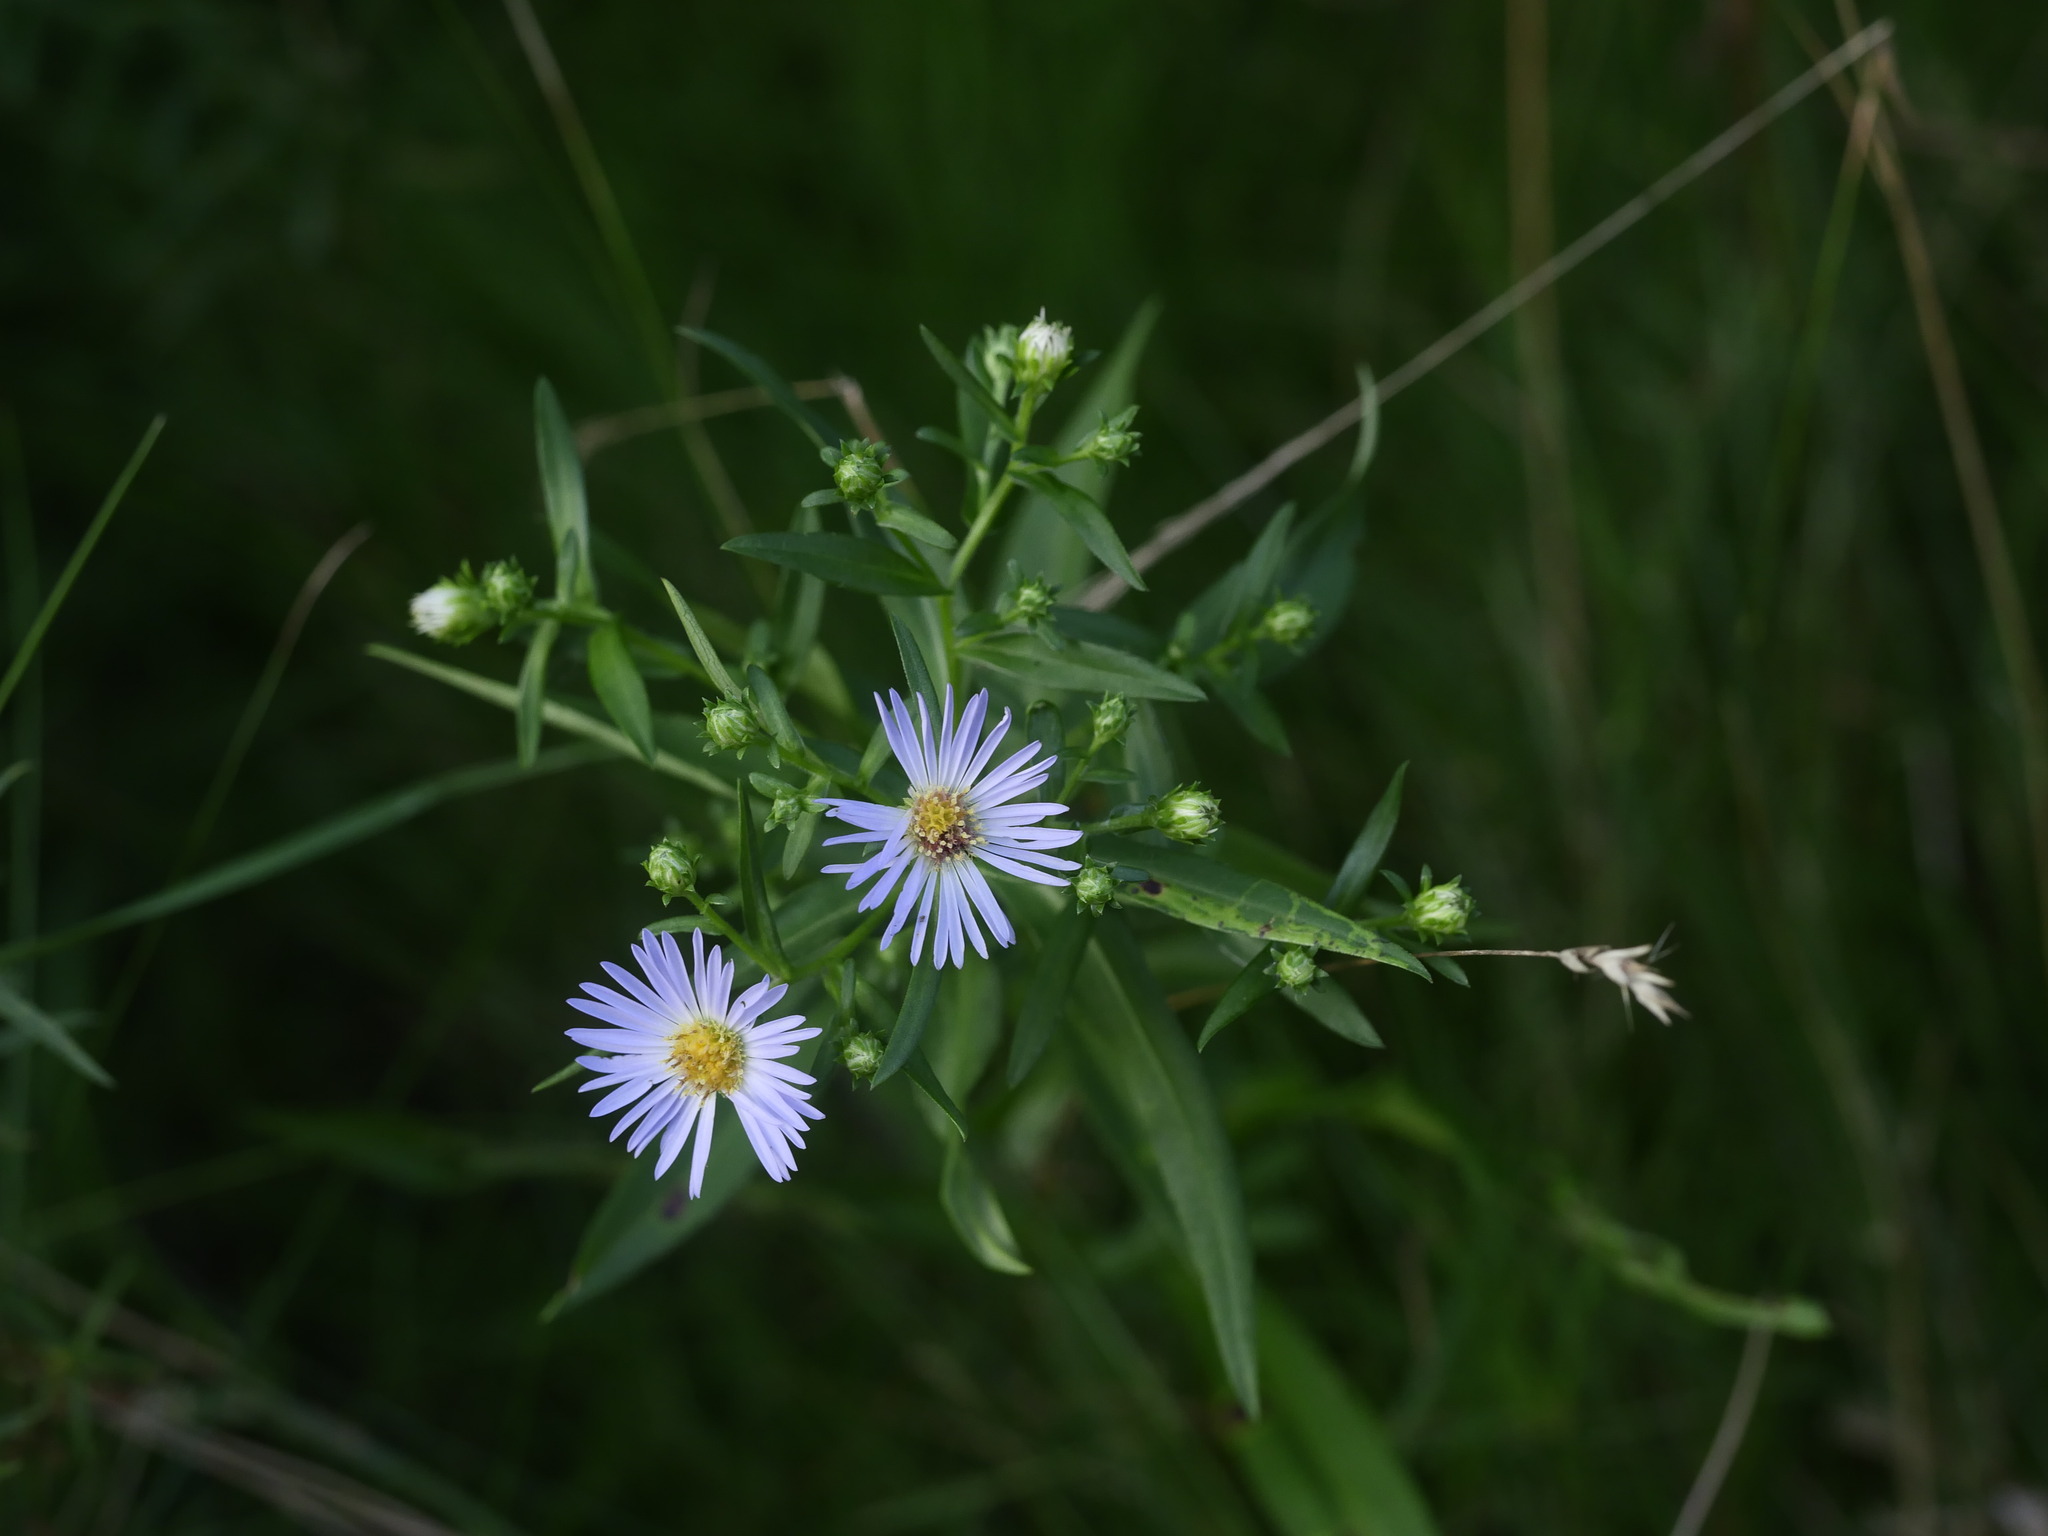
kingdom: Plantae
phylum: Tracheophyta
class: Magnoliopsida
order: Asterales
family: Asteraceae
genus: Symphyotrichum
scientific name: Symphyotrichum novi-belgii
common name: Michaelmas daisy
